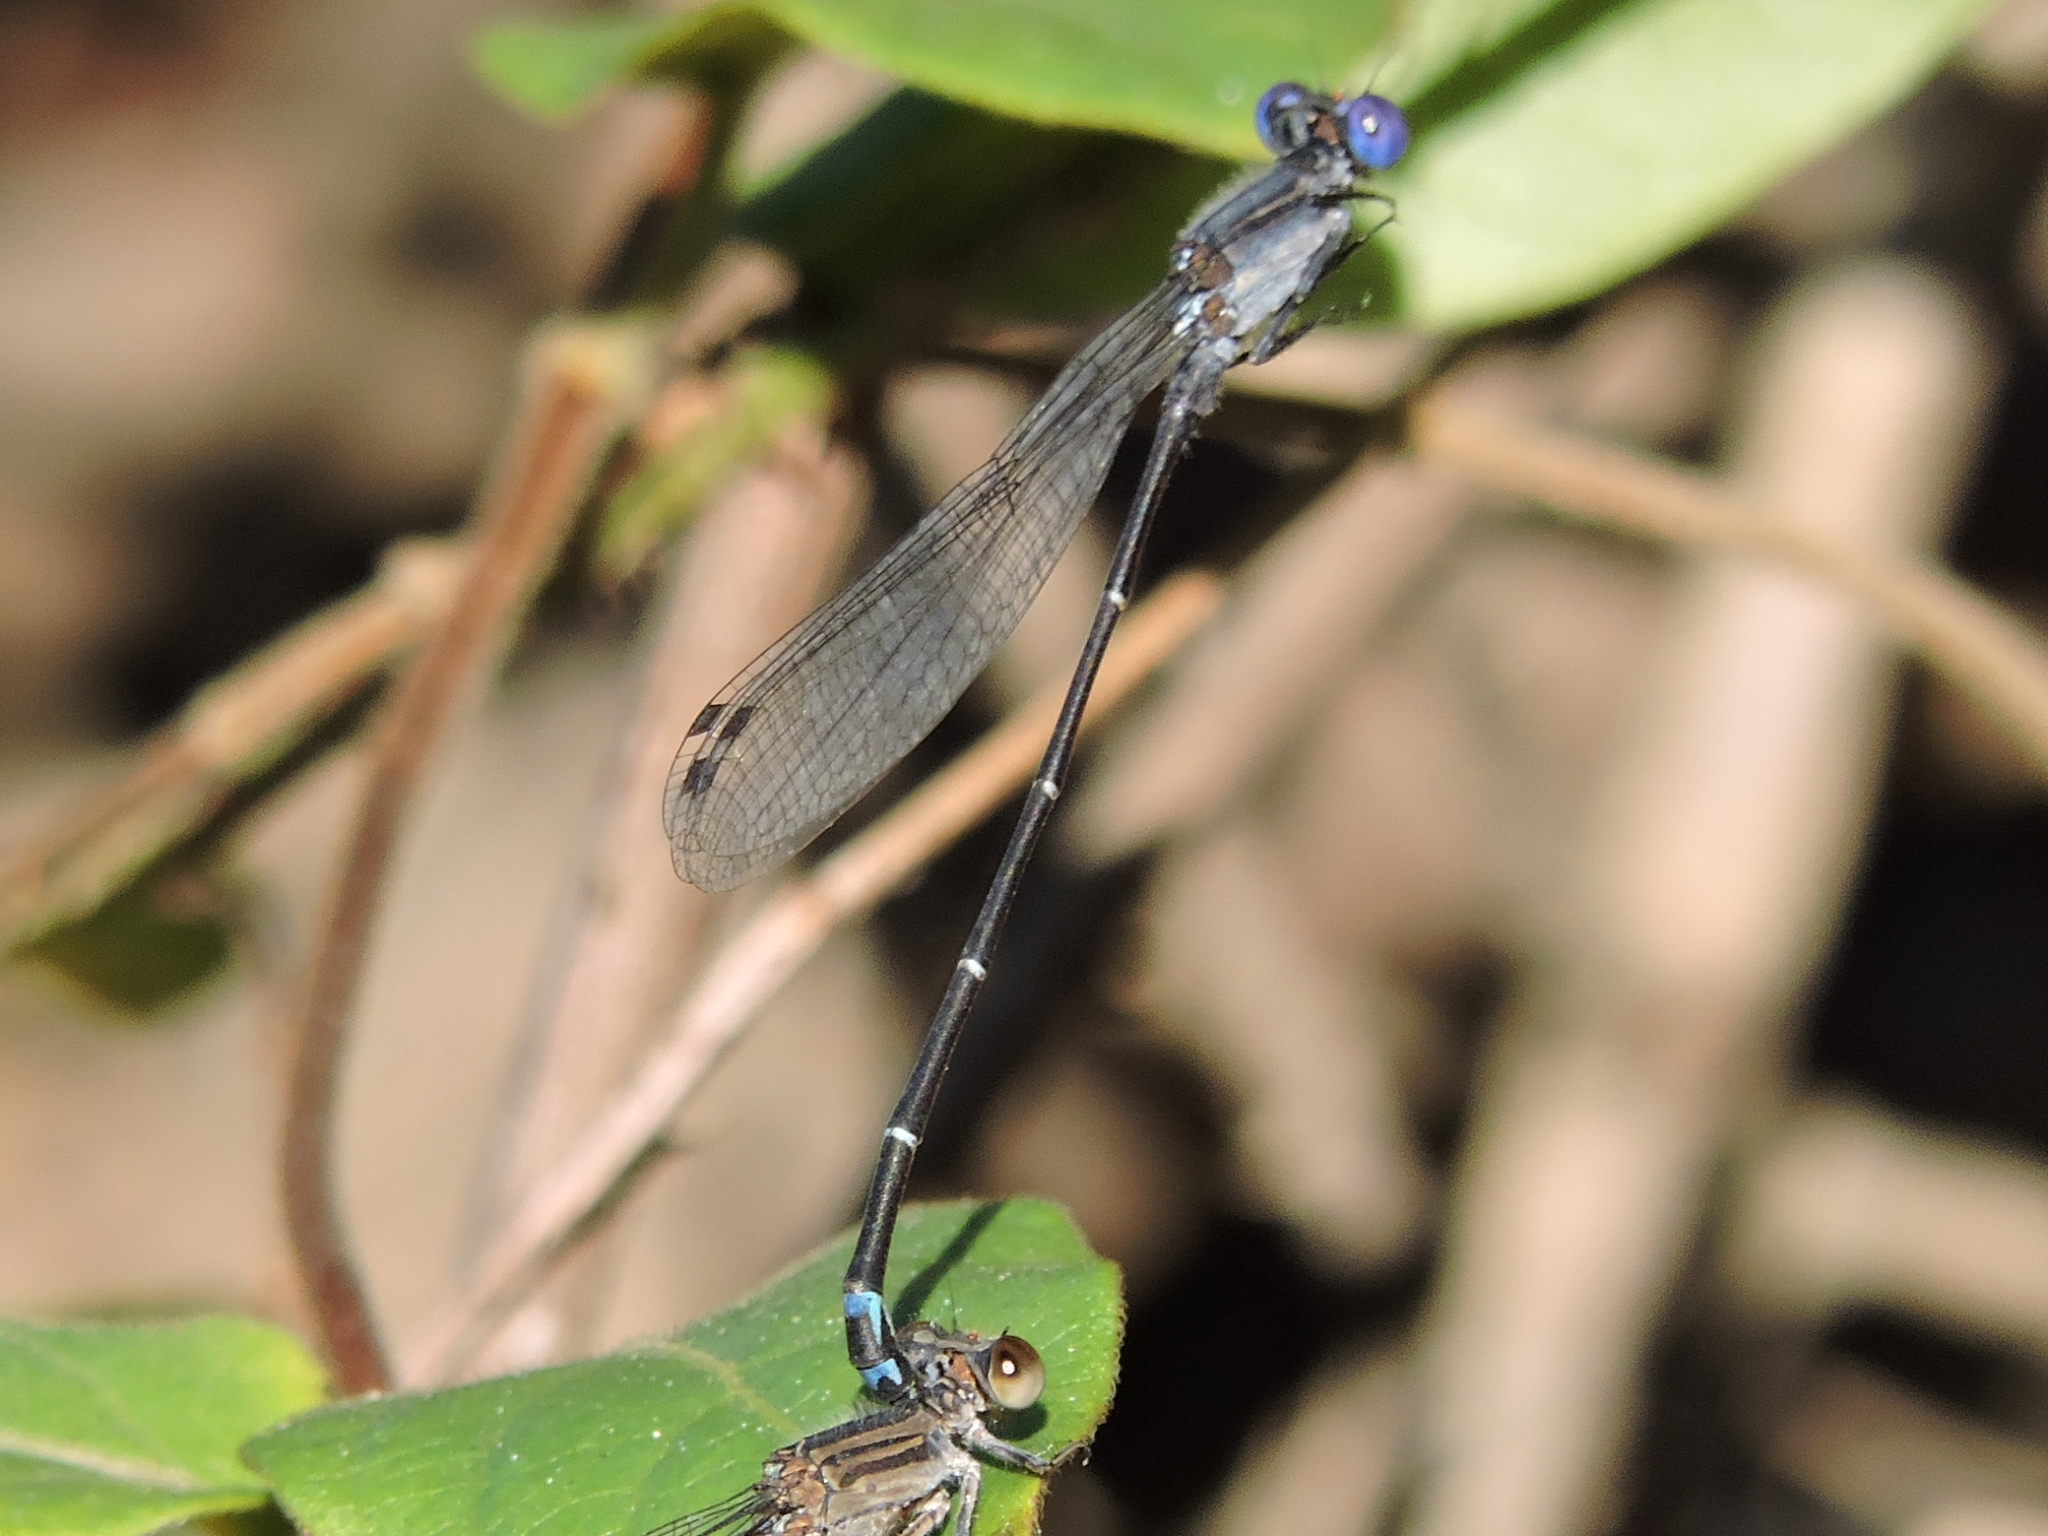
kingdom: Animalia
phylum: Arthropoda
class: Insecta
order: Odonata
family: Coenagrionidae
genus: Argia
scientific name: Argia translata
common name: Dusky dancer
